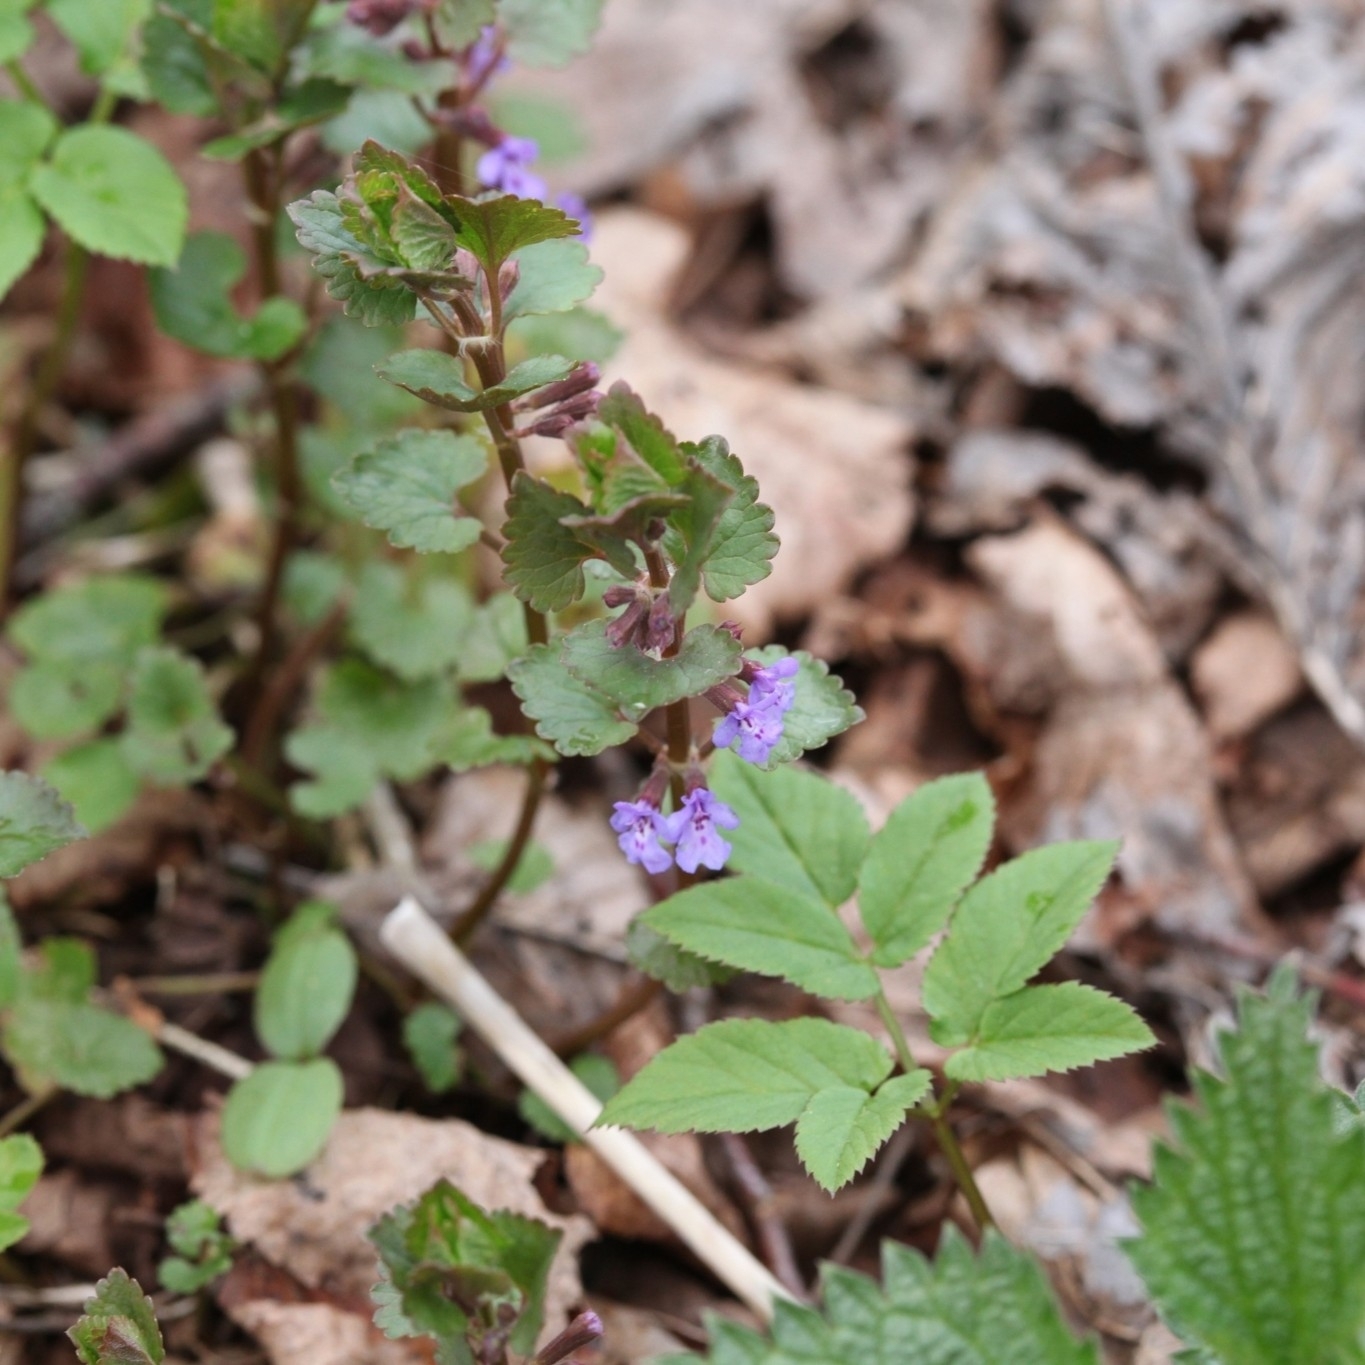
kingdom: Plantae
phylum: Tracheophyta
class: Magnoliopsida
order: Lamiales
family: Lamiaceae
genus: Glechoma
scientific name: Glechoma hederacea
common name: Ground ivy
